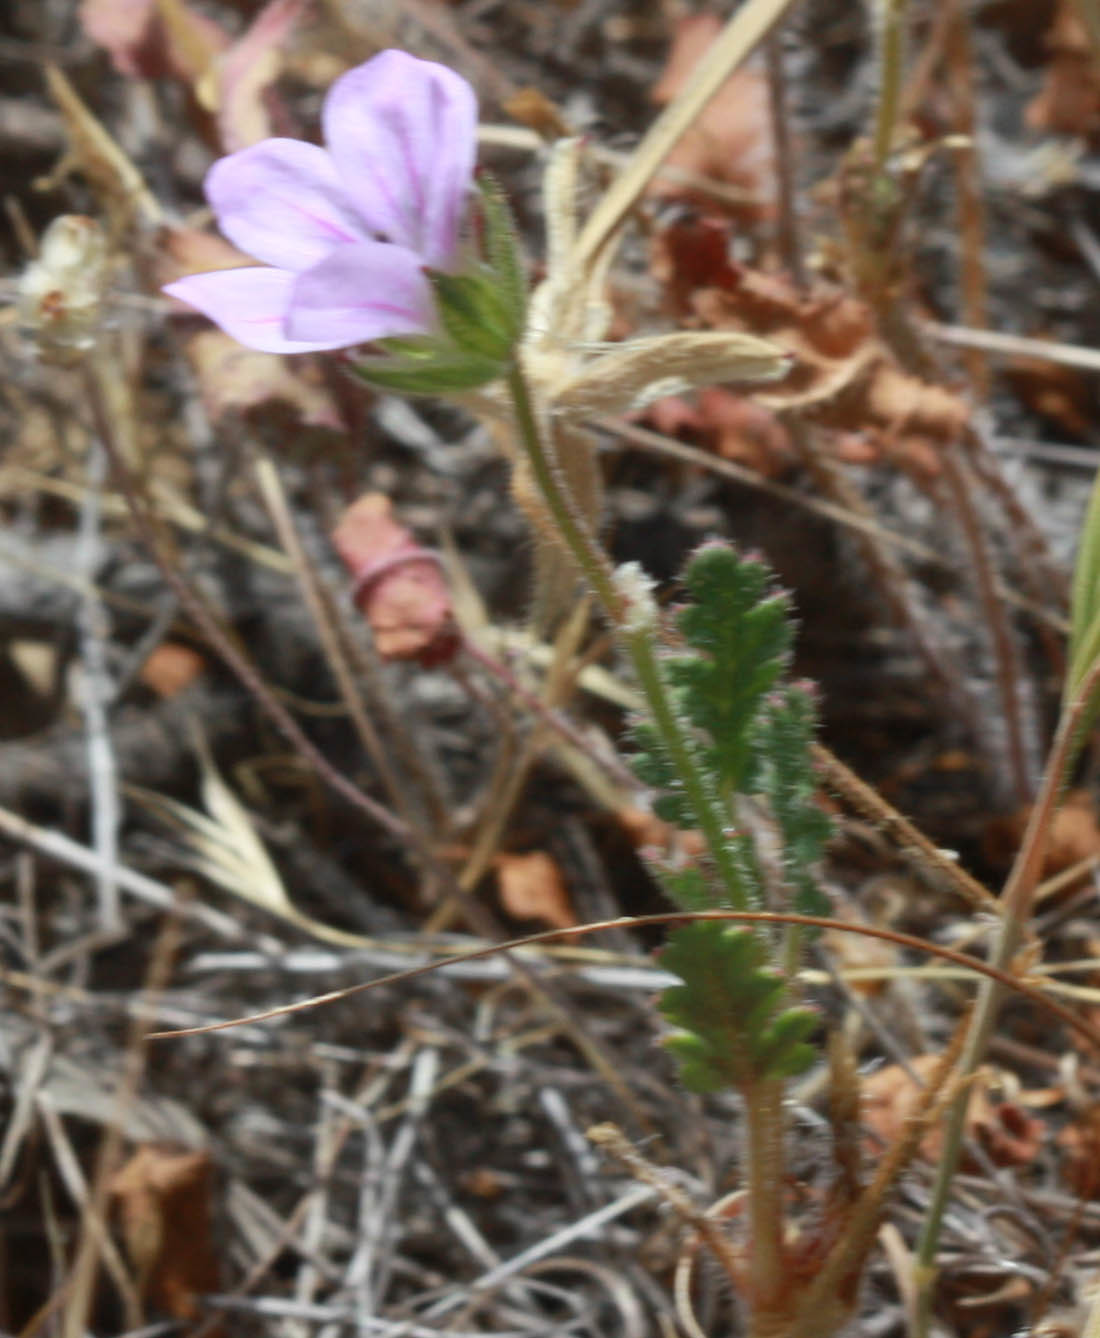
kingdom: Plantae
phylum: Tracheophyta
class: Magnoliopsida
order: Geraniales
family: Geraniaceae
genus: Erodium
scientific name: Erodium botrys
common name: Mediterranean stork's-bill
